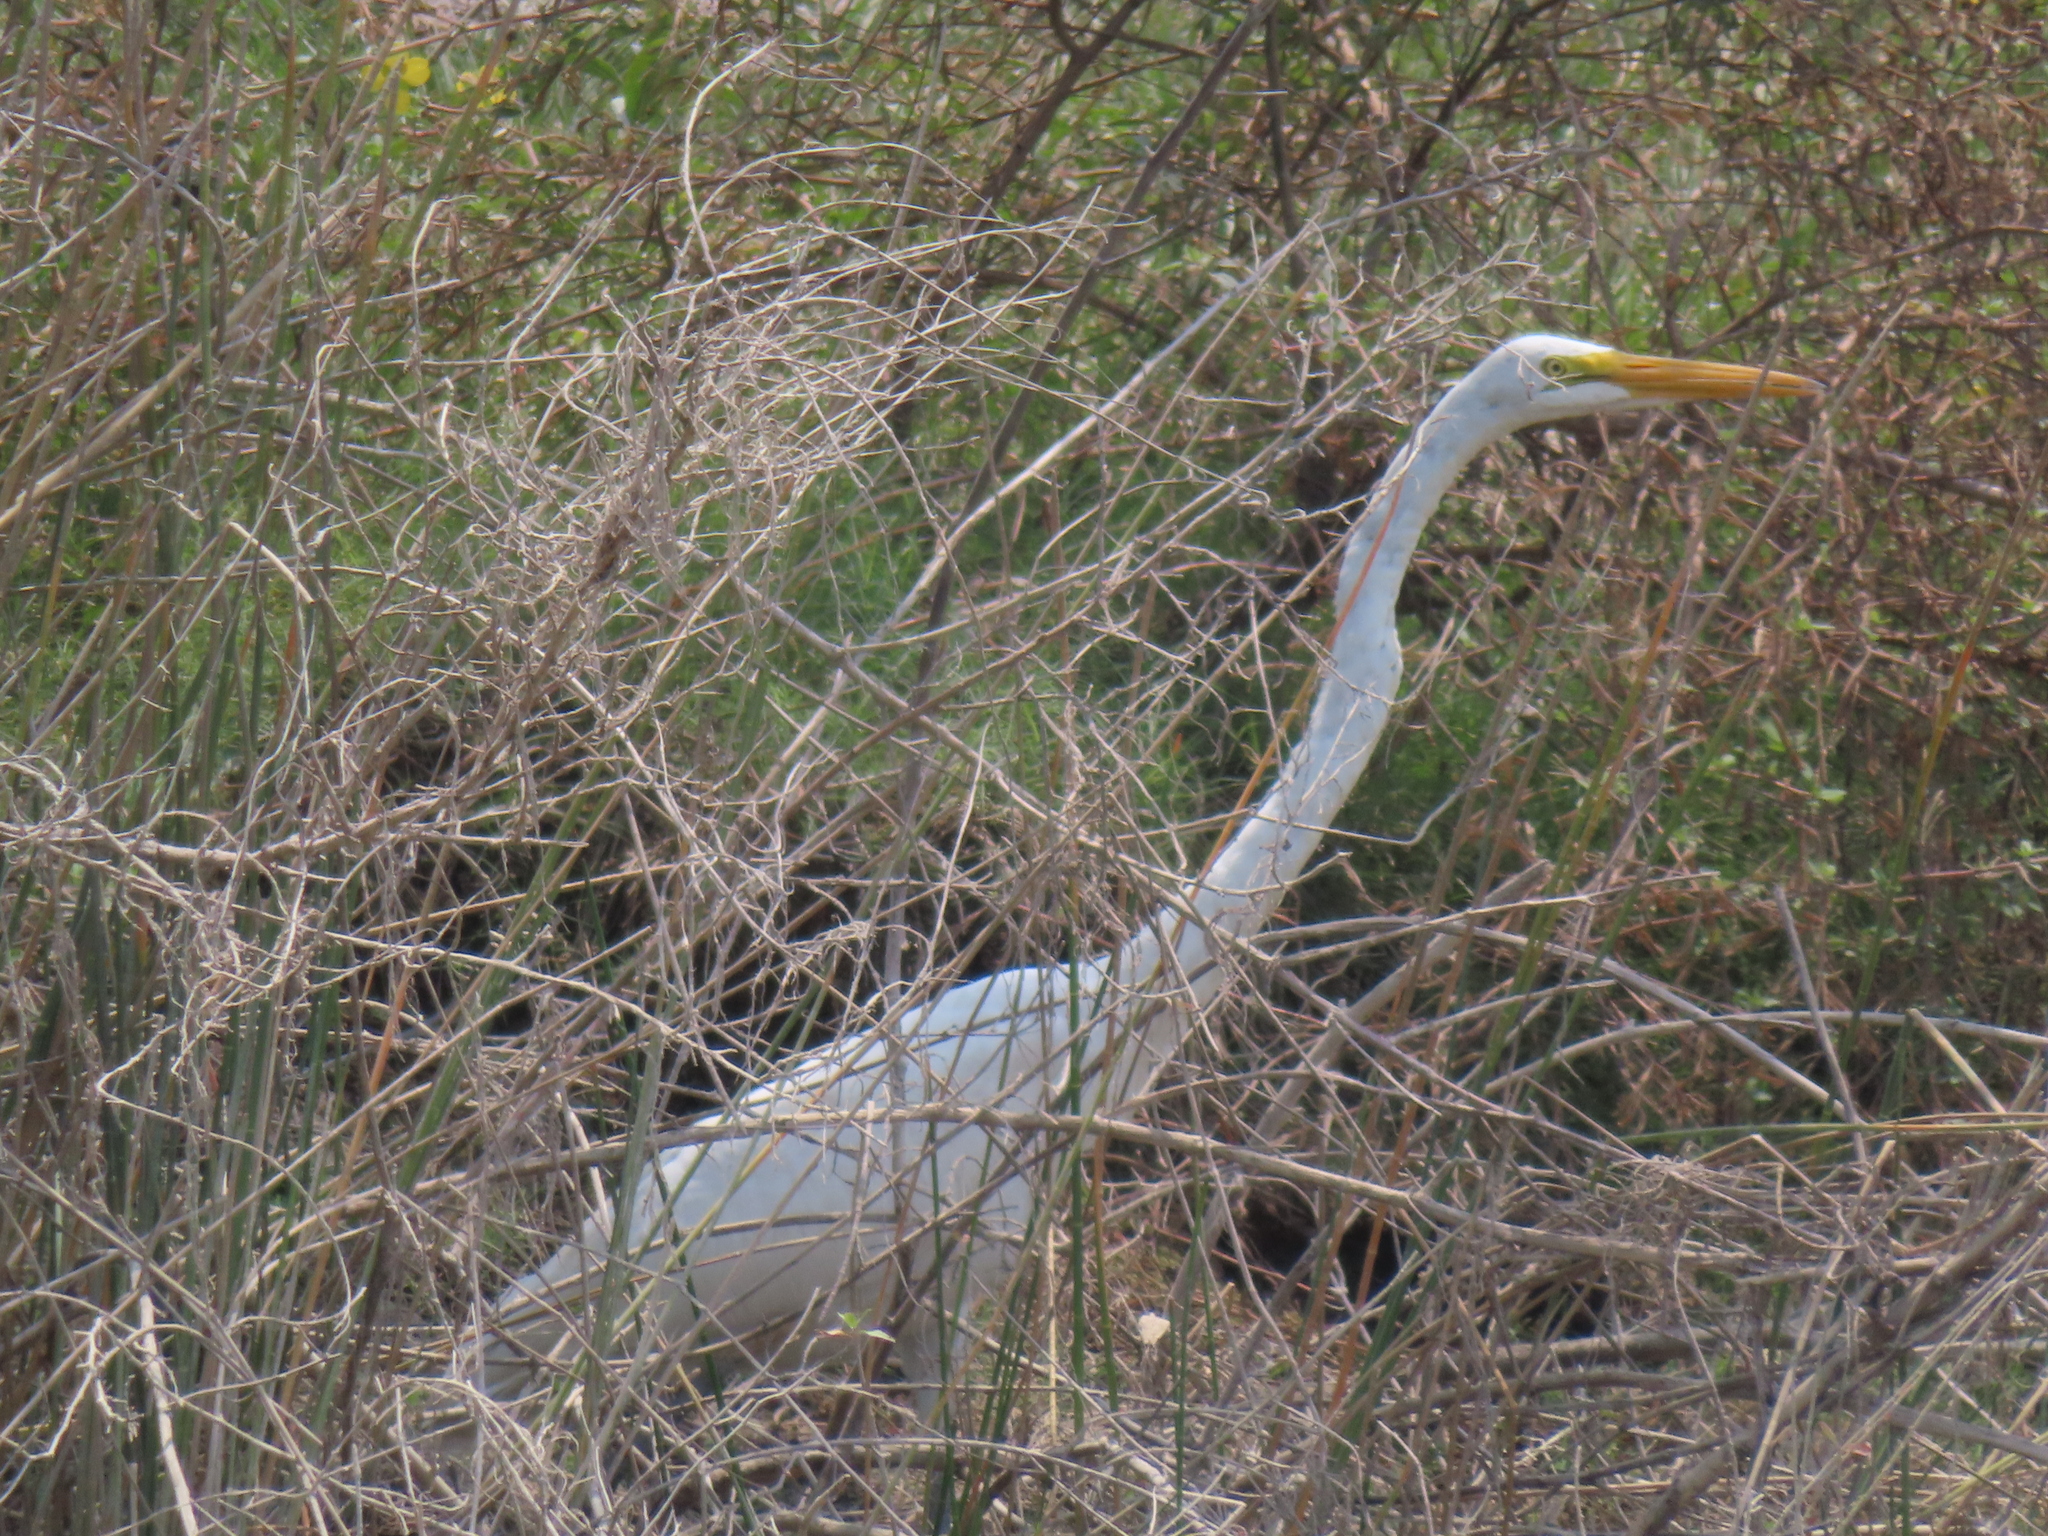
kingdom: Animalia
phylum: Chordata
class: Aves
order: Pelecaniformes
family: Ardeidae
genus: Ardea
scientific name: Ardea alba
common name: Great egret
